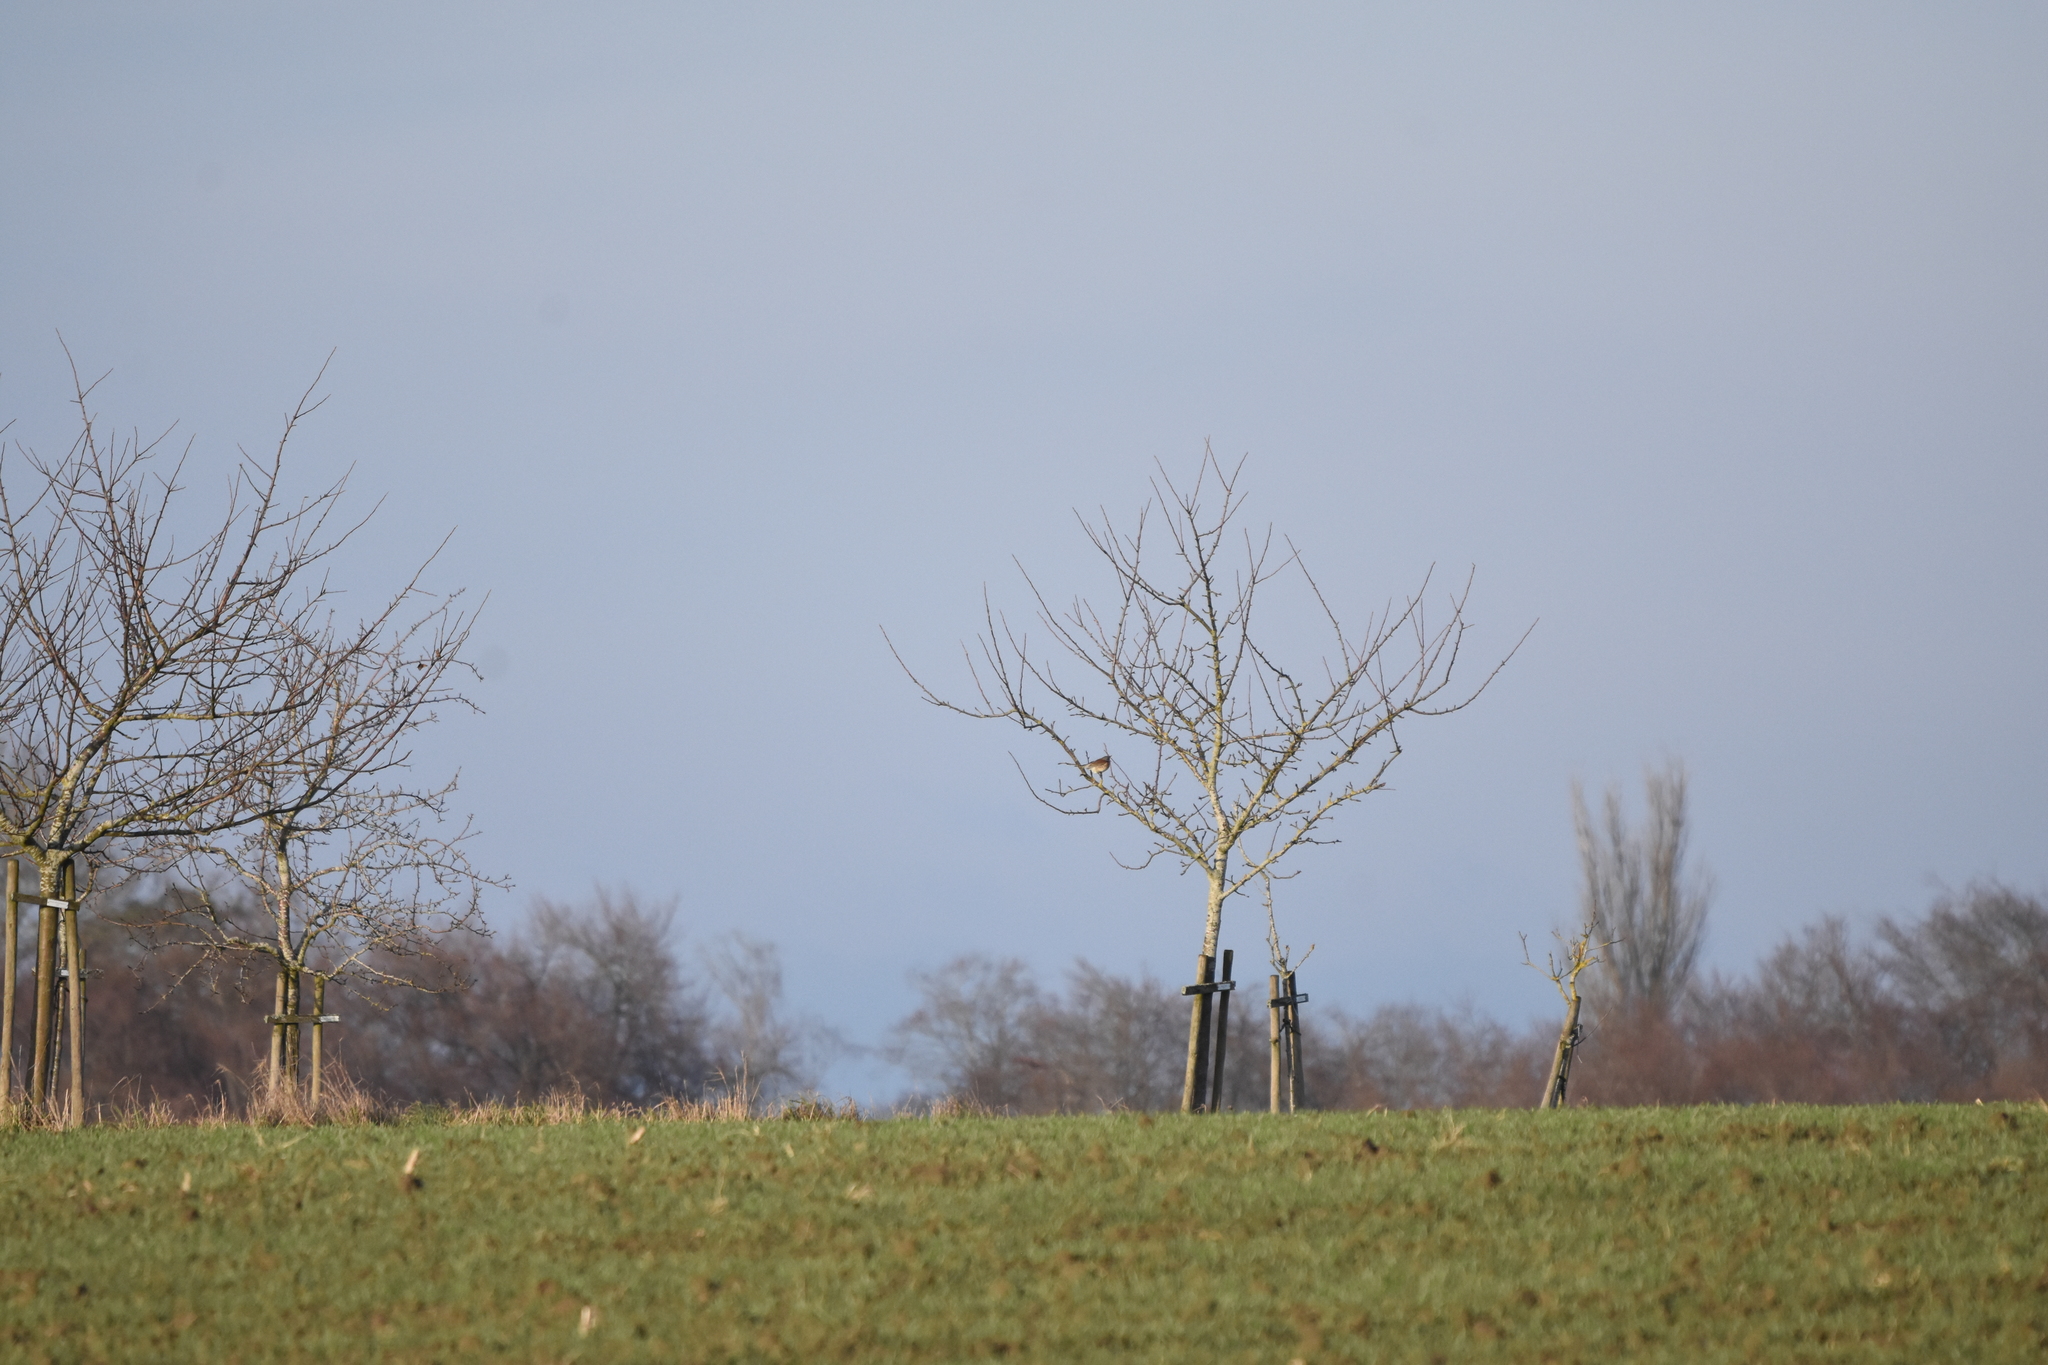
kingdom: Animalia
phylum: Chordata
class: Aves
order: Passeriformes
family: Turdidae
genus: Turdus
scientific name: Turdus pilaris
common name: Fieldfare
